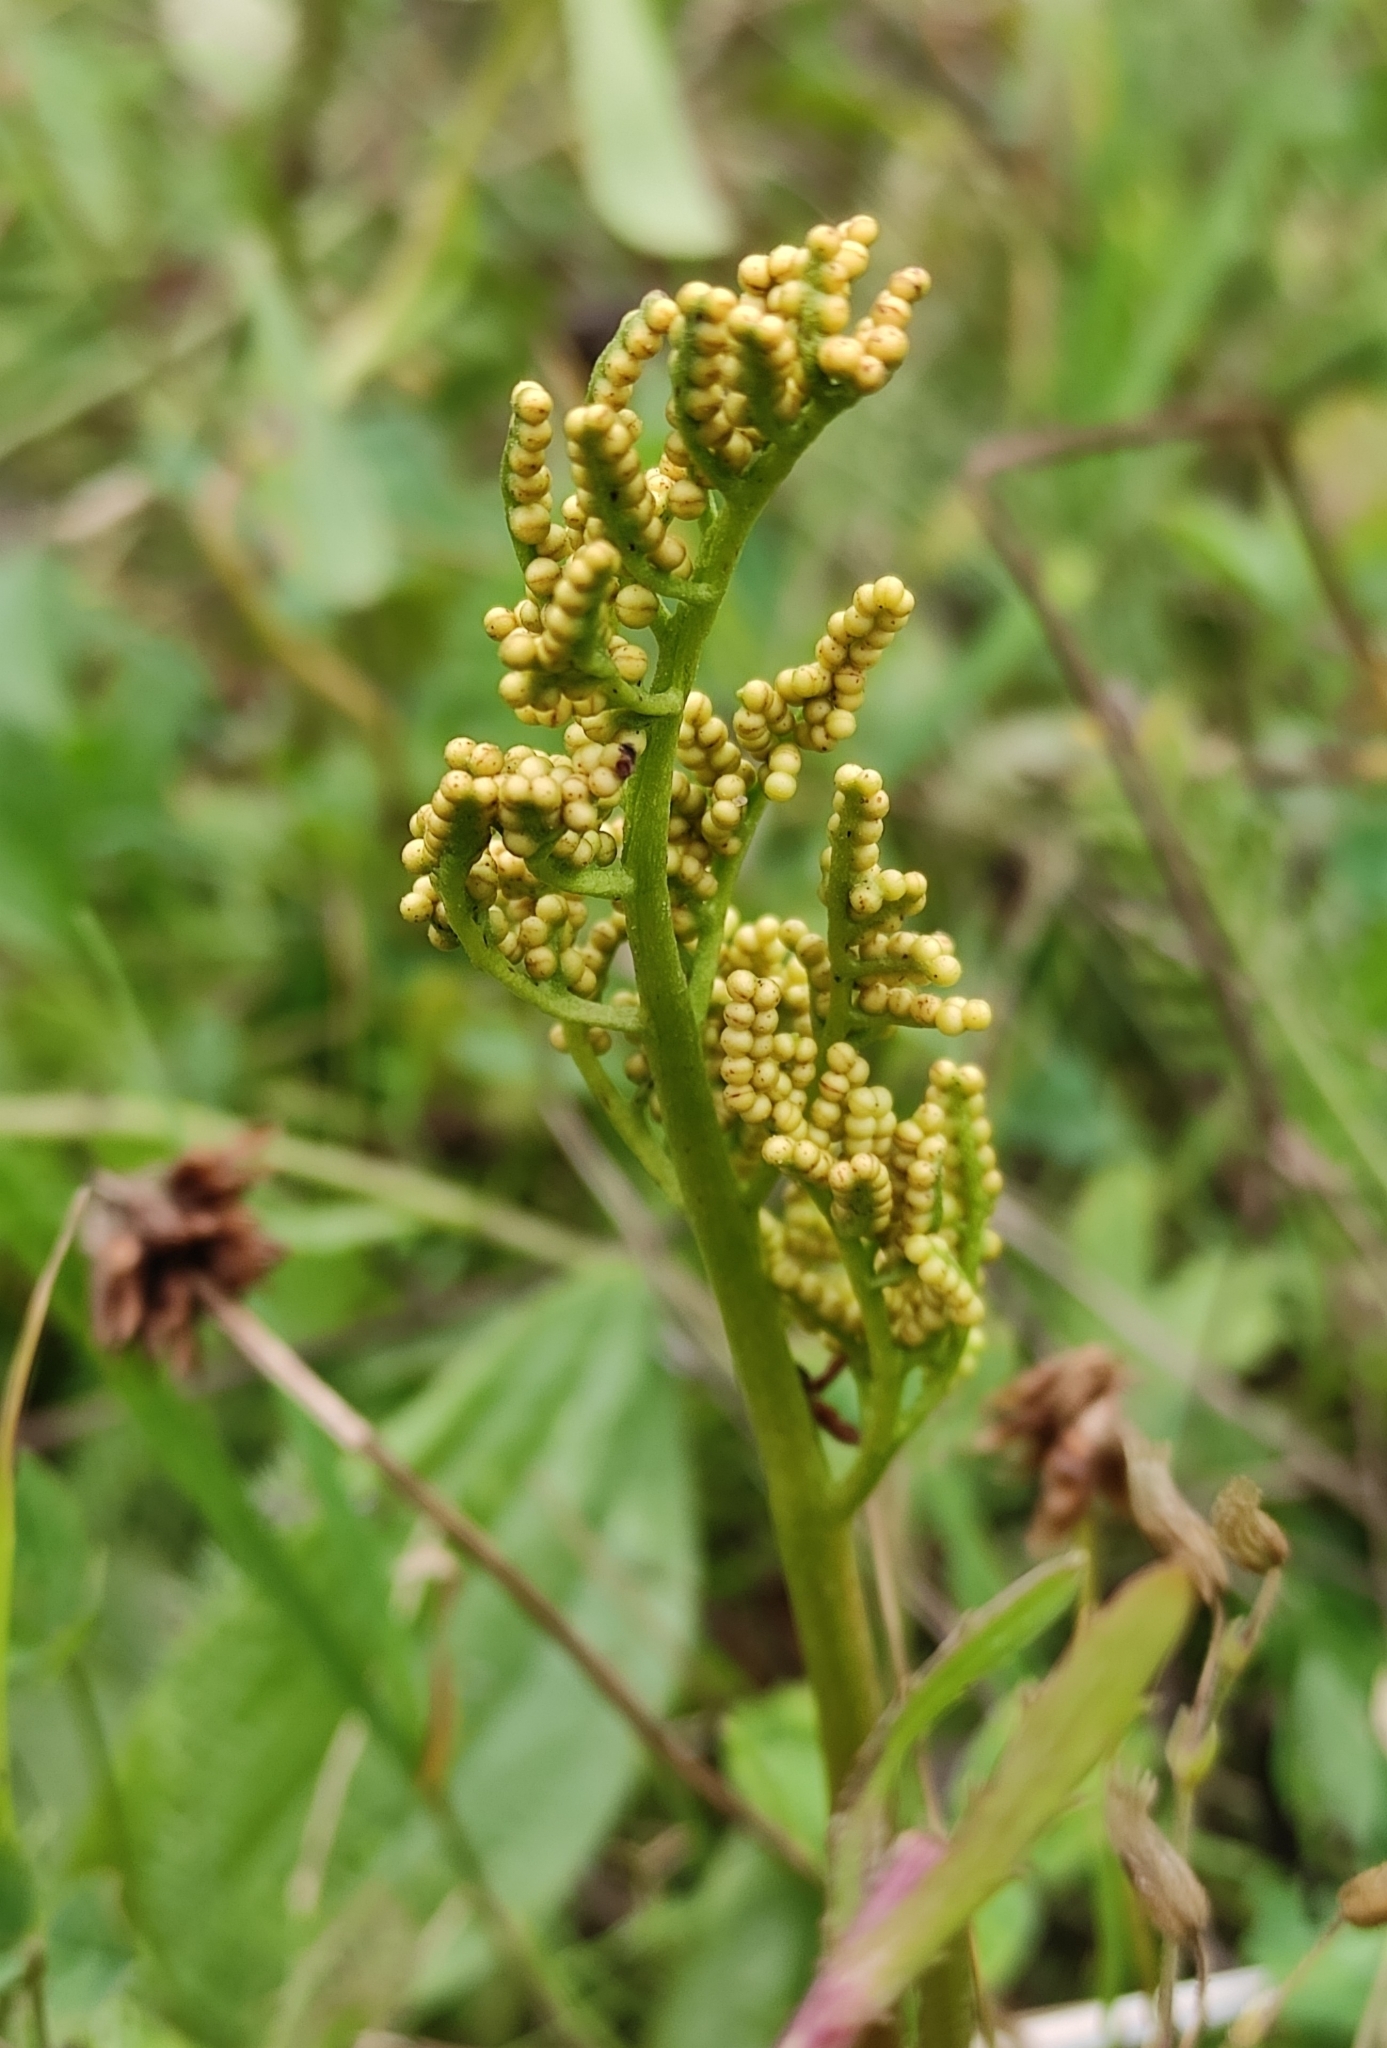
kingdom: Plantae
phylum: Tracheophyta
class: Polypodiopsida
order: Ophioglossales
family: Ophioglossaceae
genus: Sceptridium
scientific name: Sceptridium multifidum
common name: Leathery grape fern
